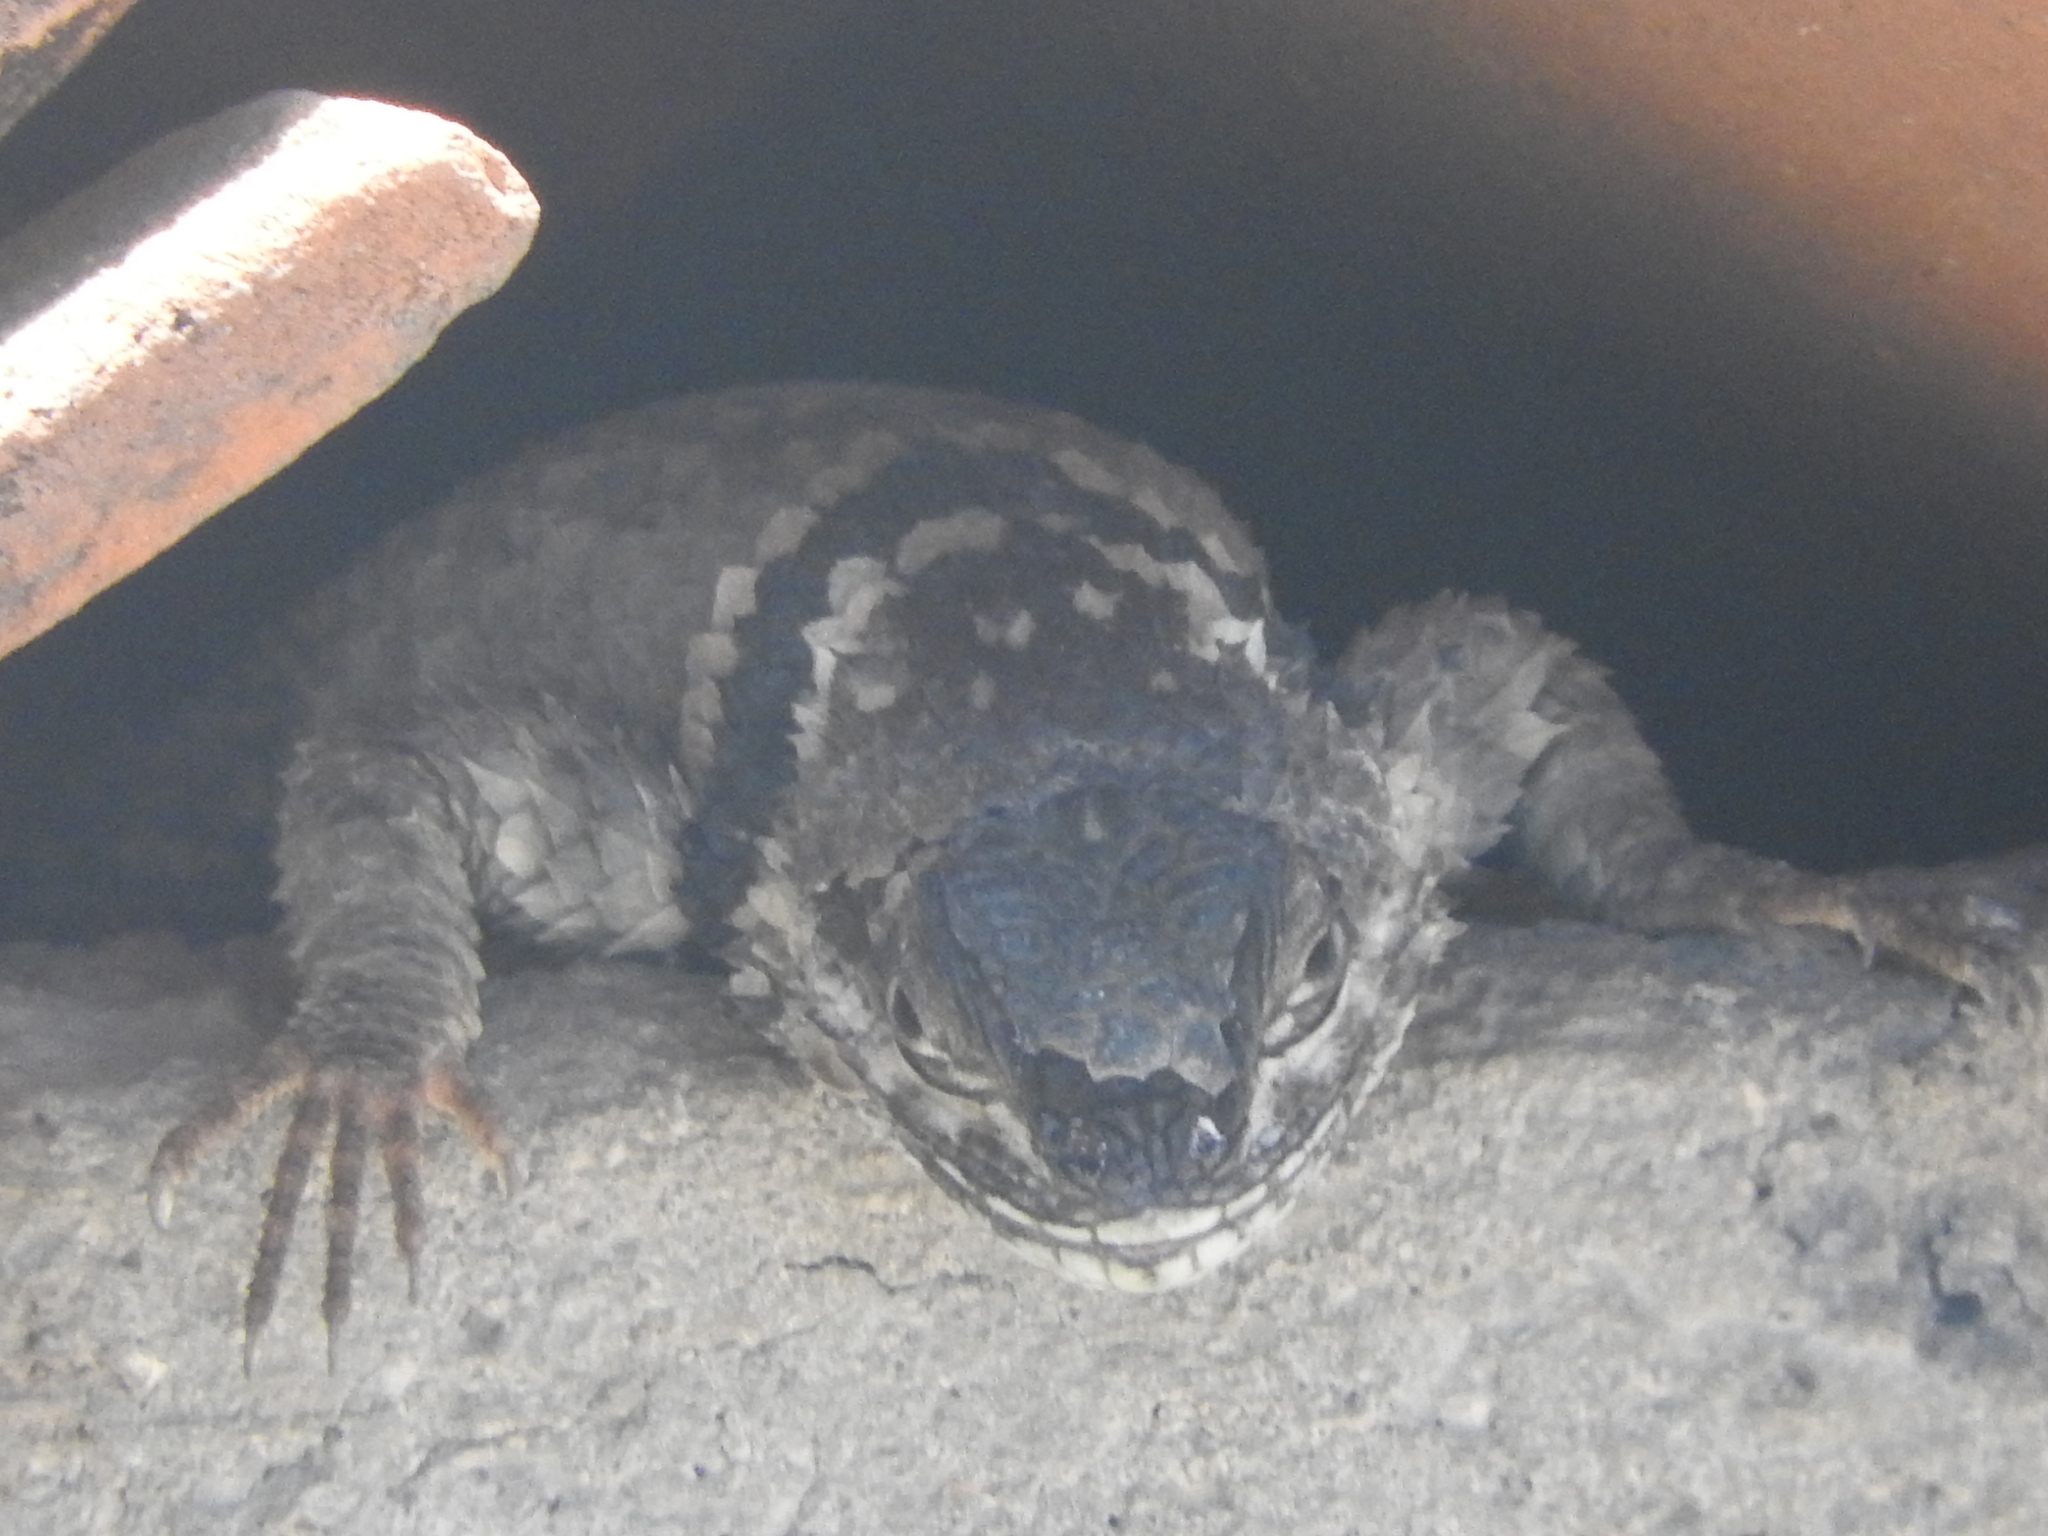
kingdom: Animalia
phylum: Chordata
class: Squamata
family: Phrynosomatidae
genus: Sceloporus
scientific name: Sceloporus torquatus
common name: Central plateau torquate lizard [melanogaster]
